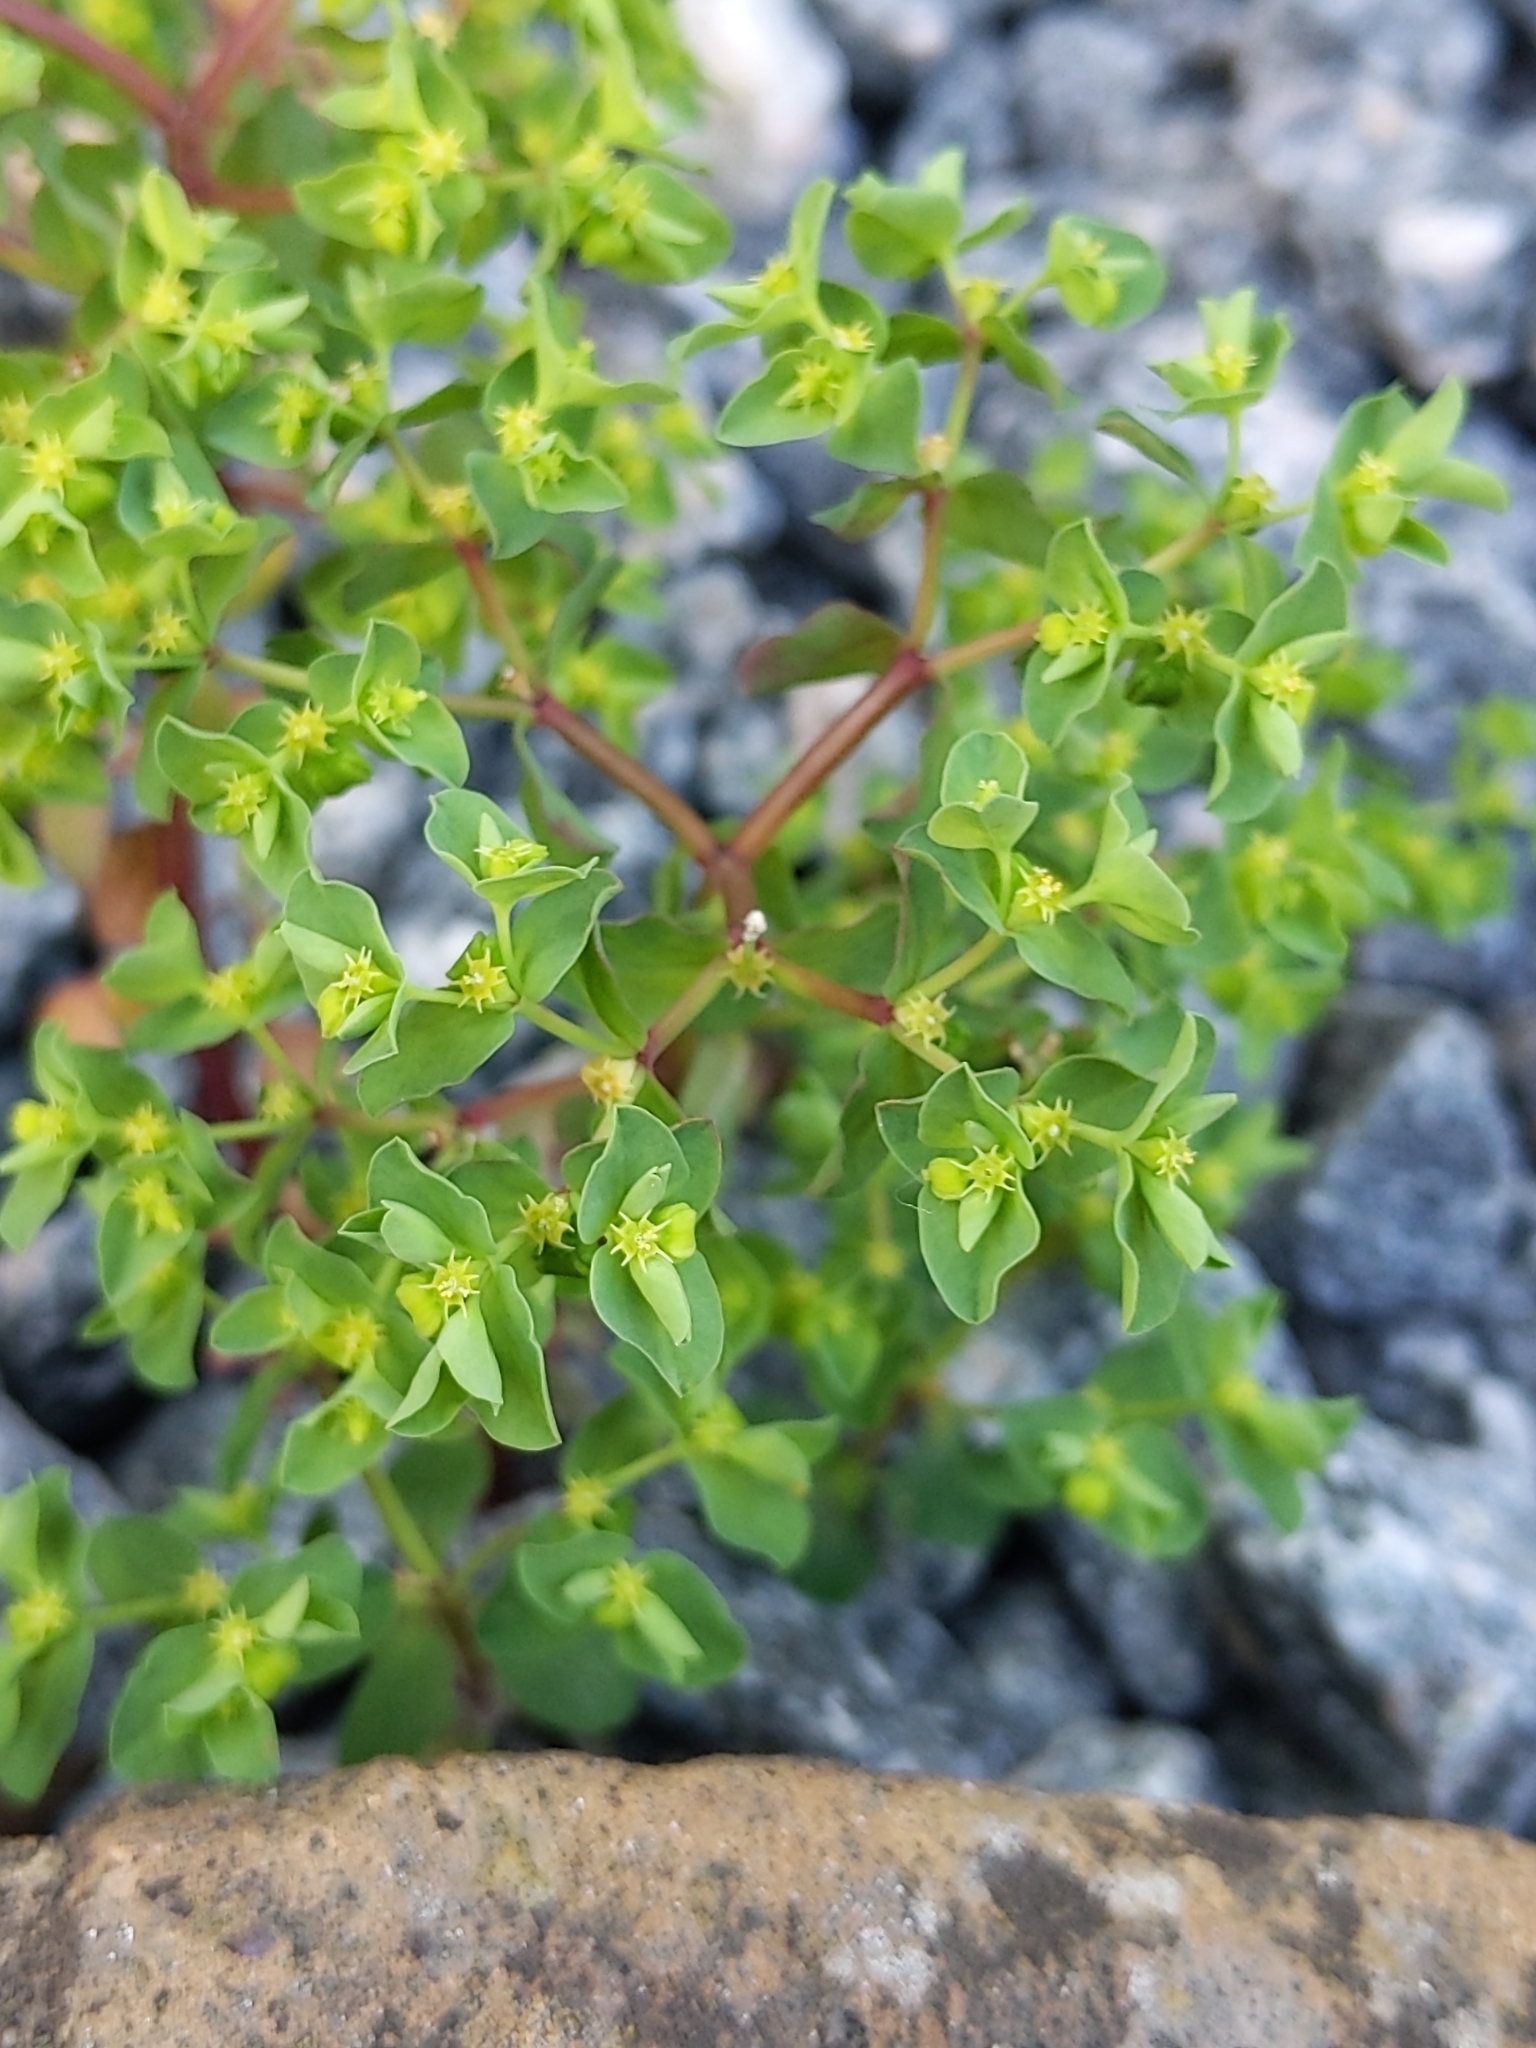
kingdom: Plantae
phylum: Tracheophyta
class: Magnoliopsida
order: Malpighiales
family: Euphorbiaceae
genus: Euphorbia
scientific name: Euphorbia peplus
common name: Petty spurge
